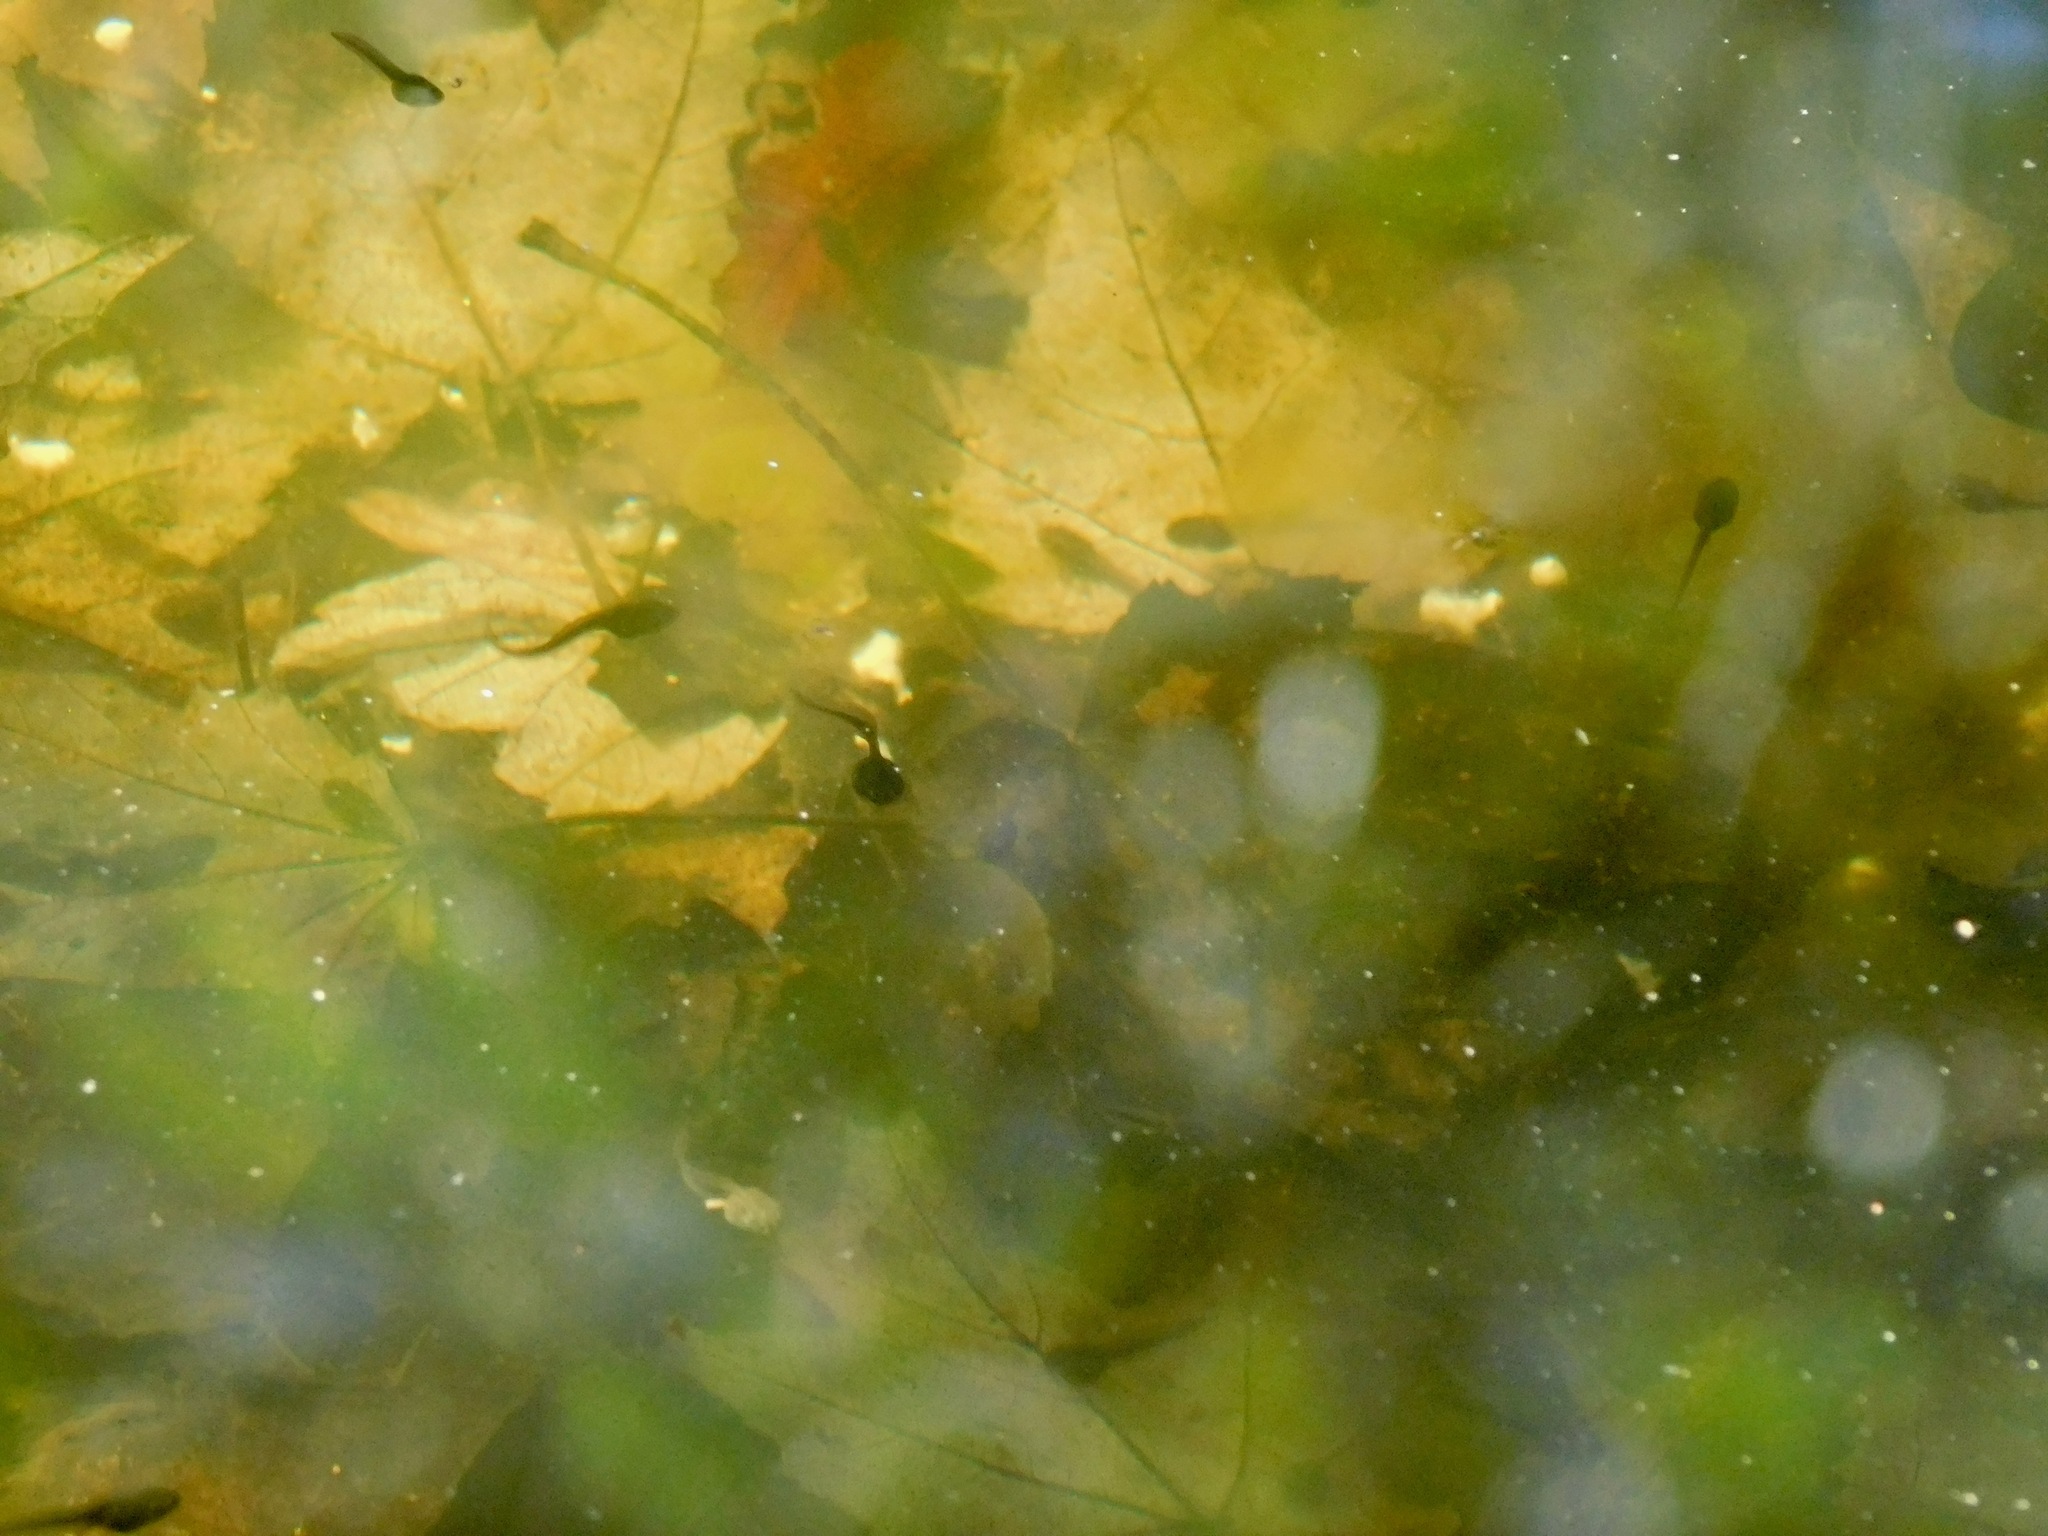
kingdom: Animalia
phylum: Chordata
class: Amphibia
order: Anura
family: Ranidae
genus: Lithobates
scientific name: Lithobates sylvaticus
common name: Wood frog
